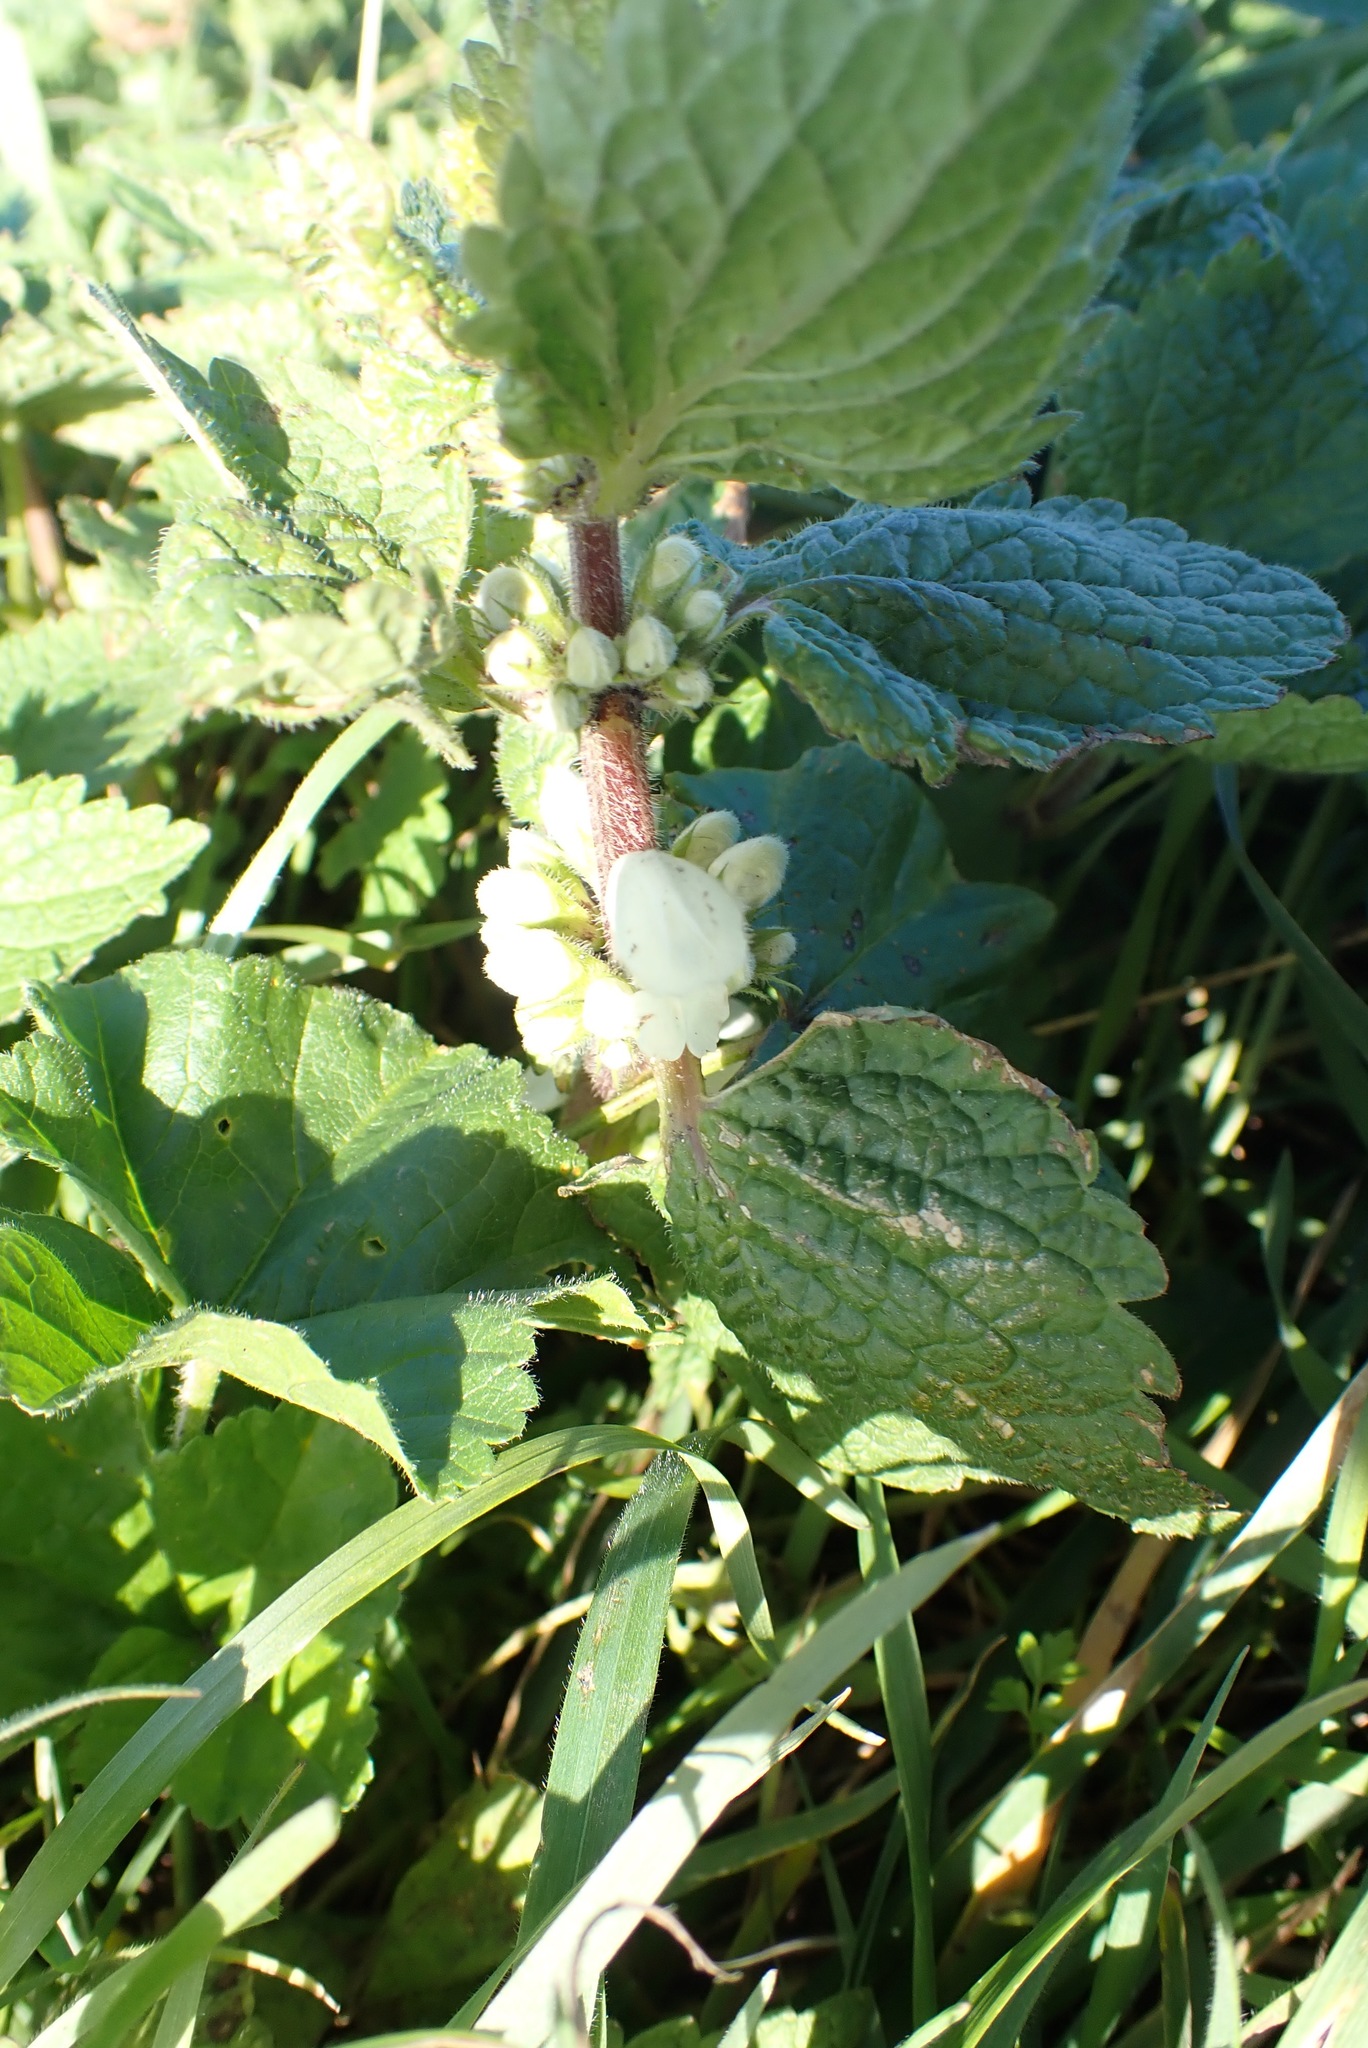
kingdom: Plantae
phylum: Tracheophyta
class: Magnoliopsida
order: Lamiales
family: Lamiaceae
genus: Lamium
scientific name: Lamium album
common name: White dead-nettle
